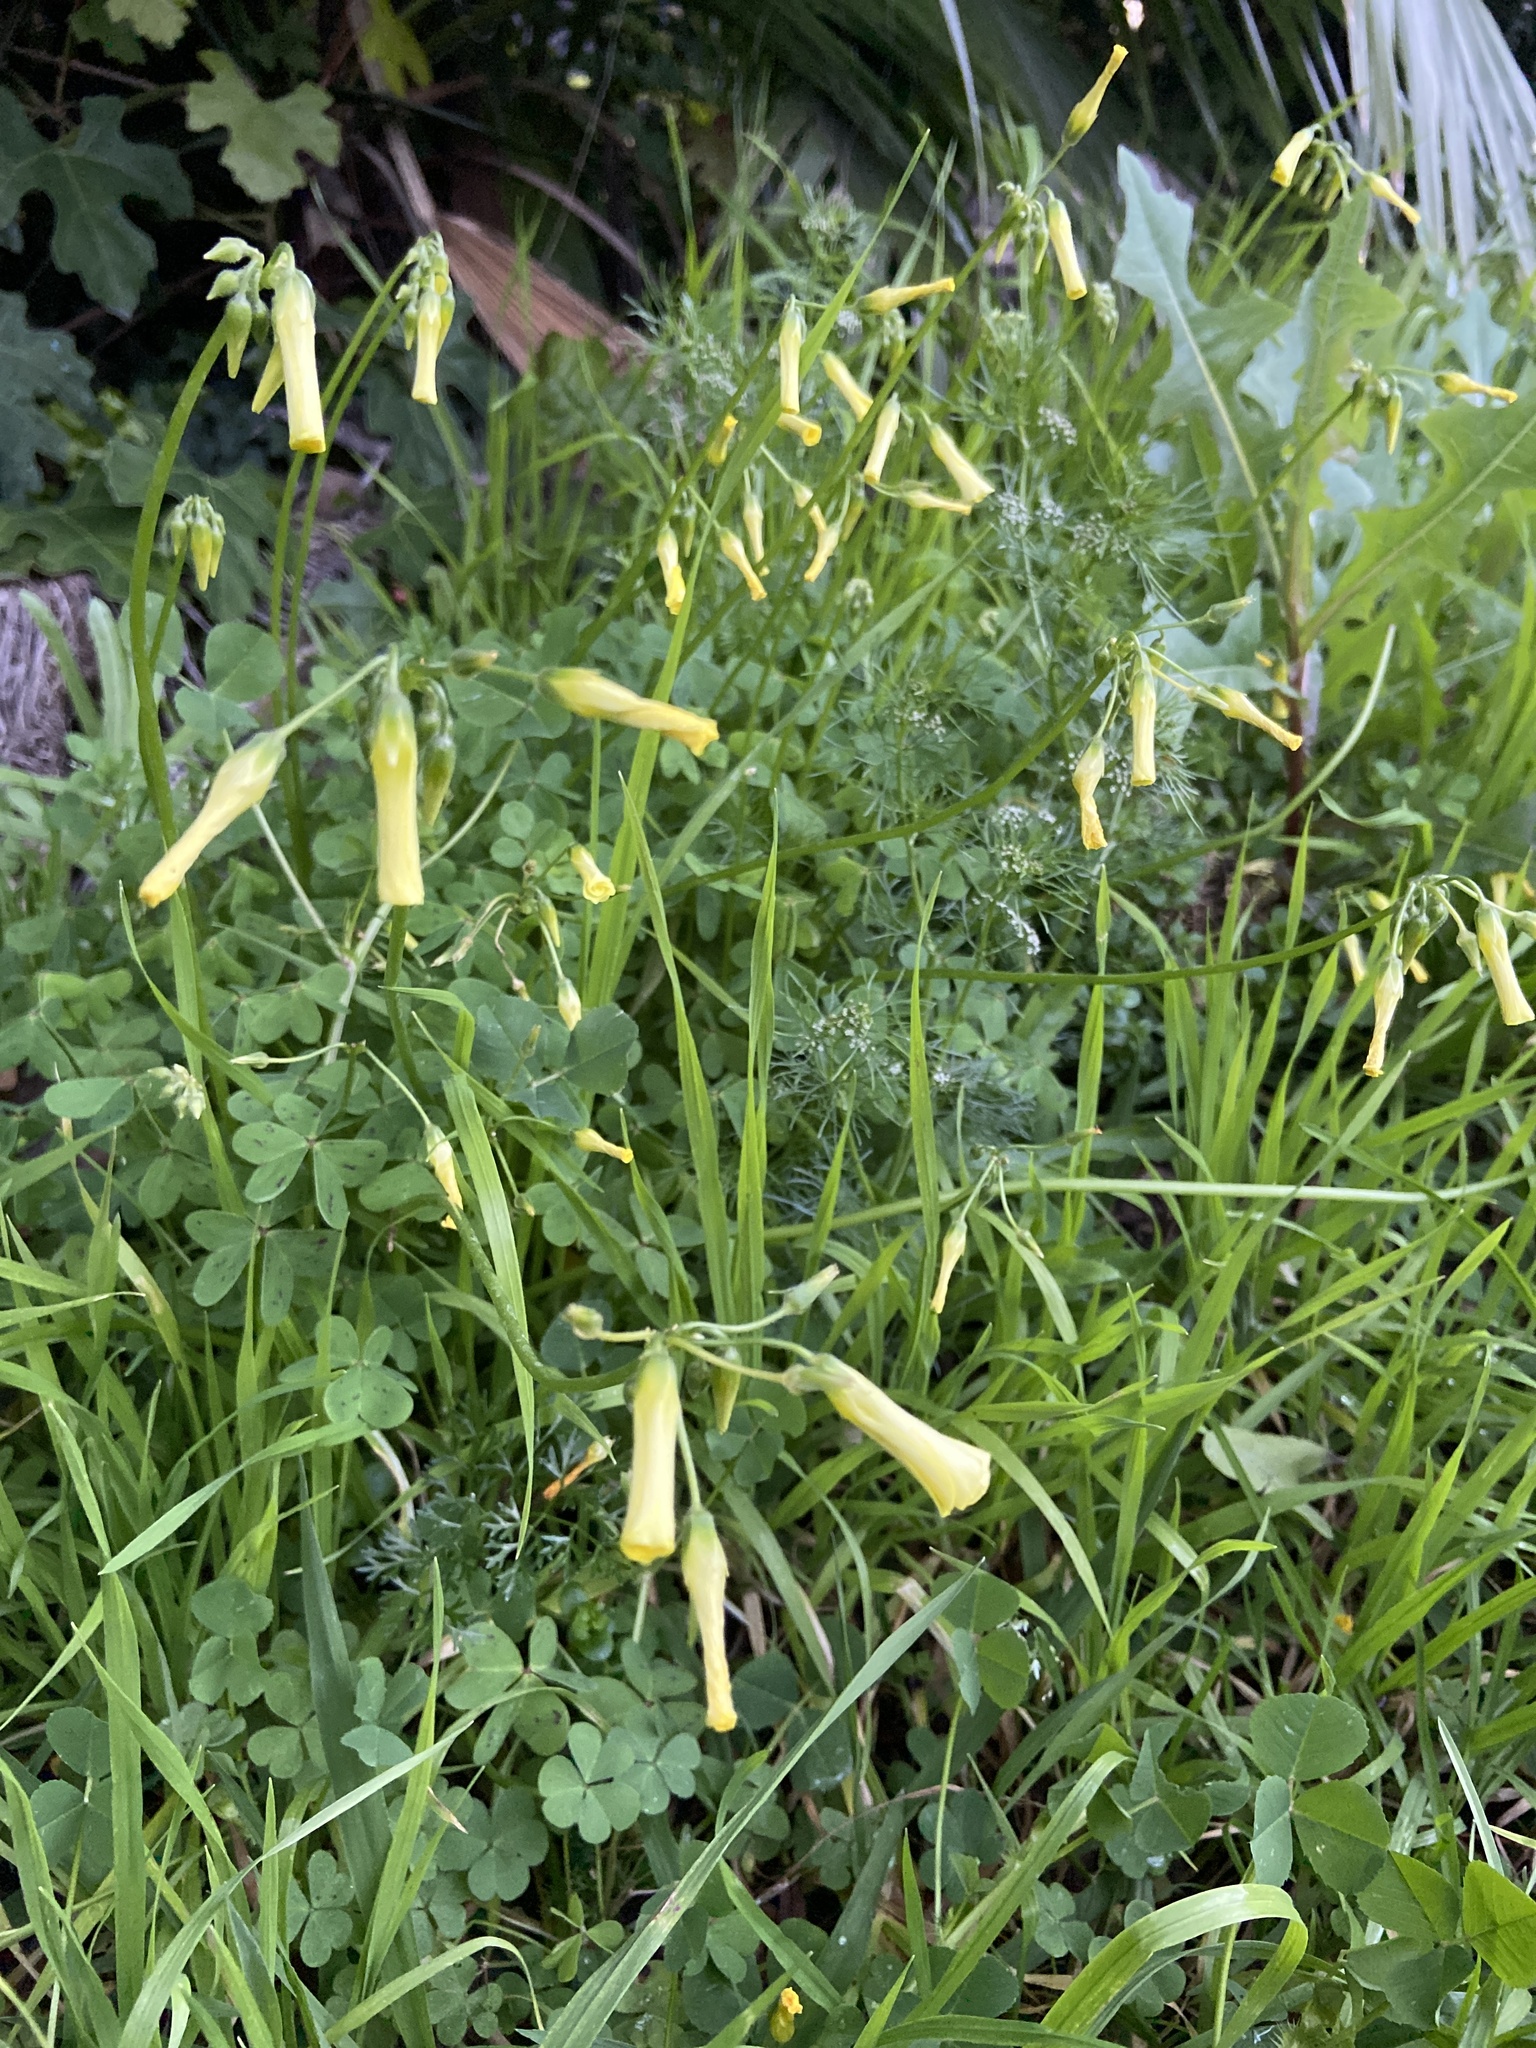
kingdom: Plantae
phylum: Tracheophyta
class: Magnoliopsida
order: Oxalidales
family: Oxalidaceae
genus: Oxalis
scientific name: Oxalis pes-caprae
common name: Bermuda-buttercup
